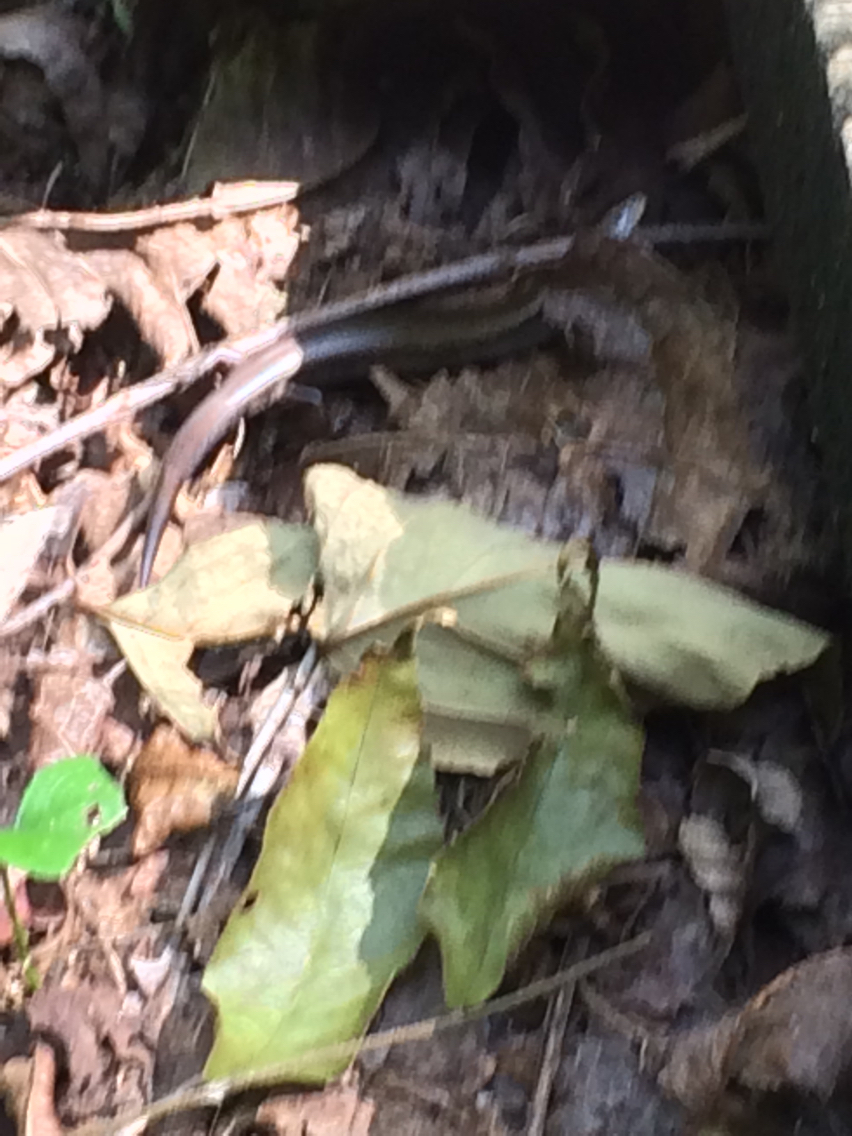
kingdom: Animalia
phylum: Chordata
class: Squamata
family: Scincidae
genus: Scincella
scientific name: Scincella lateralis
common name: Ground skink
